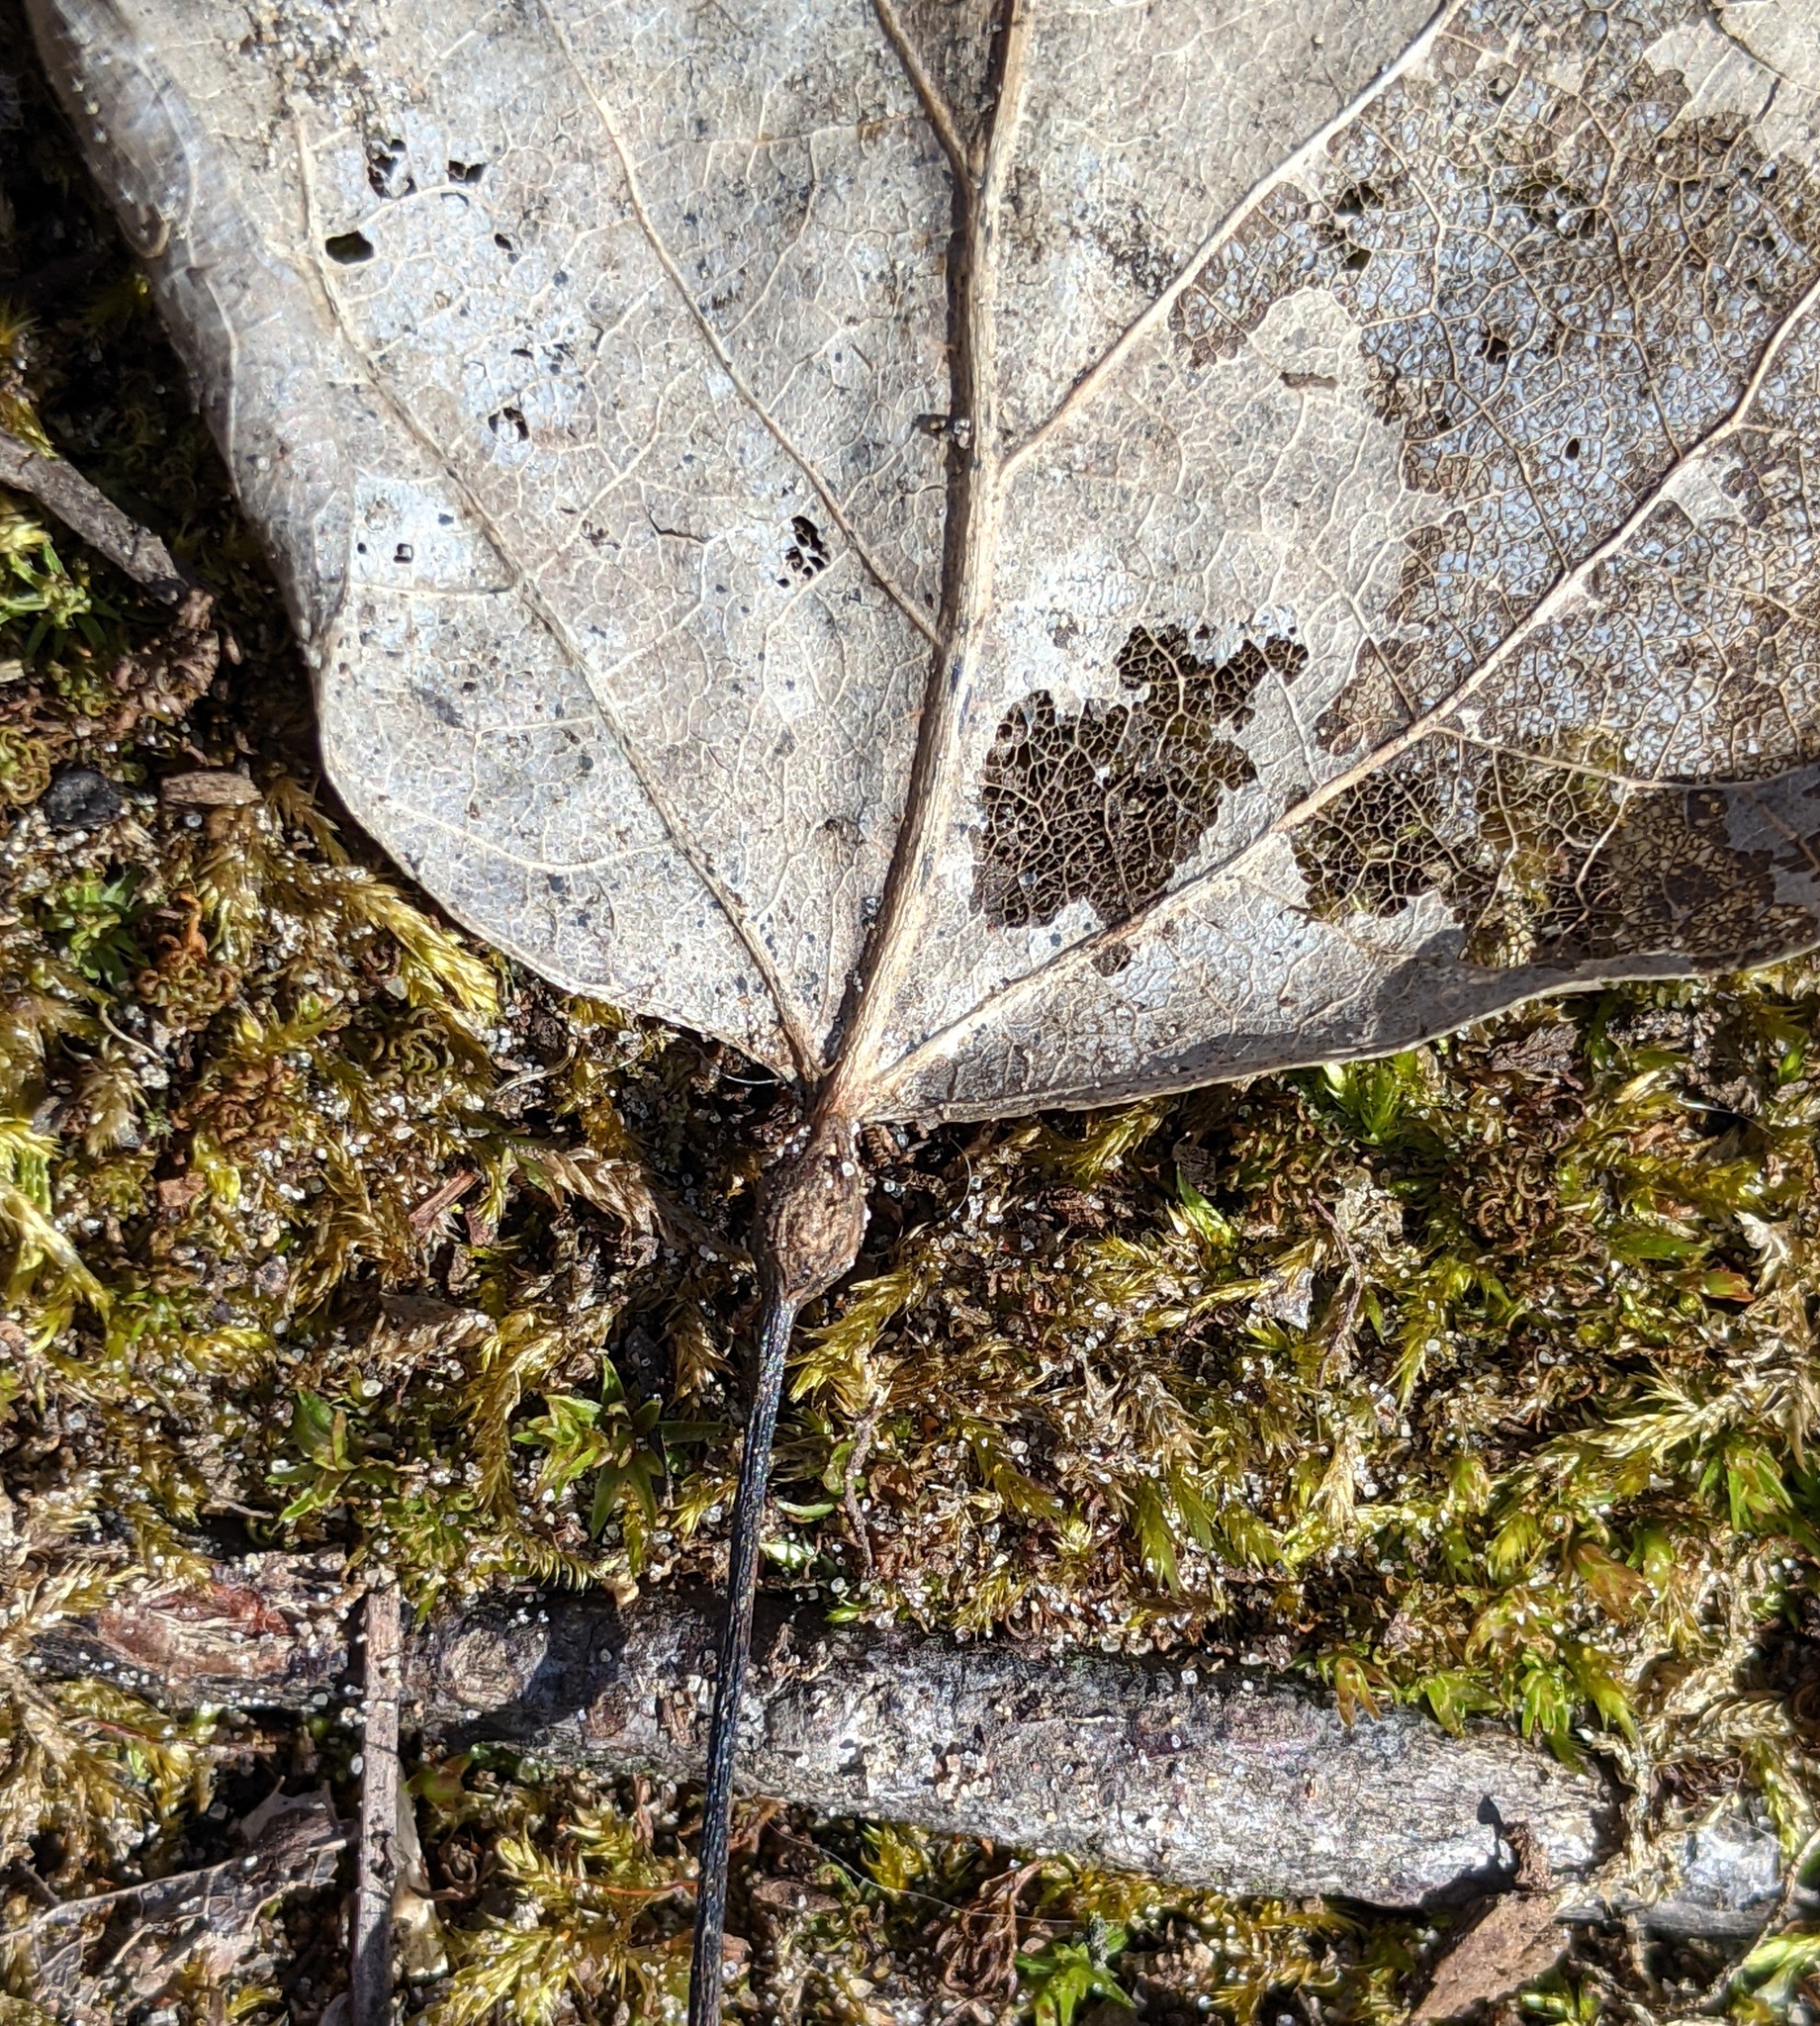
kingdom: Animalia
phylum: Arthropoda
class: Insecta
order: Lepidoptera
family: Nepticulidae
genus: Ectoedemia
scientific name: Ectoedemia populella
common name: Aspen petiole gall moth
